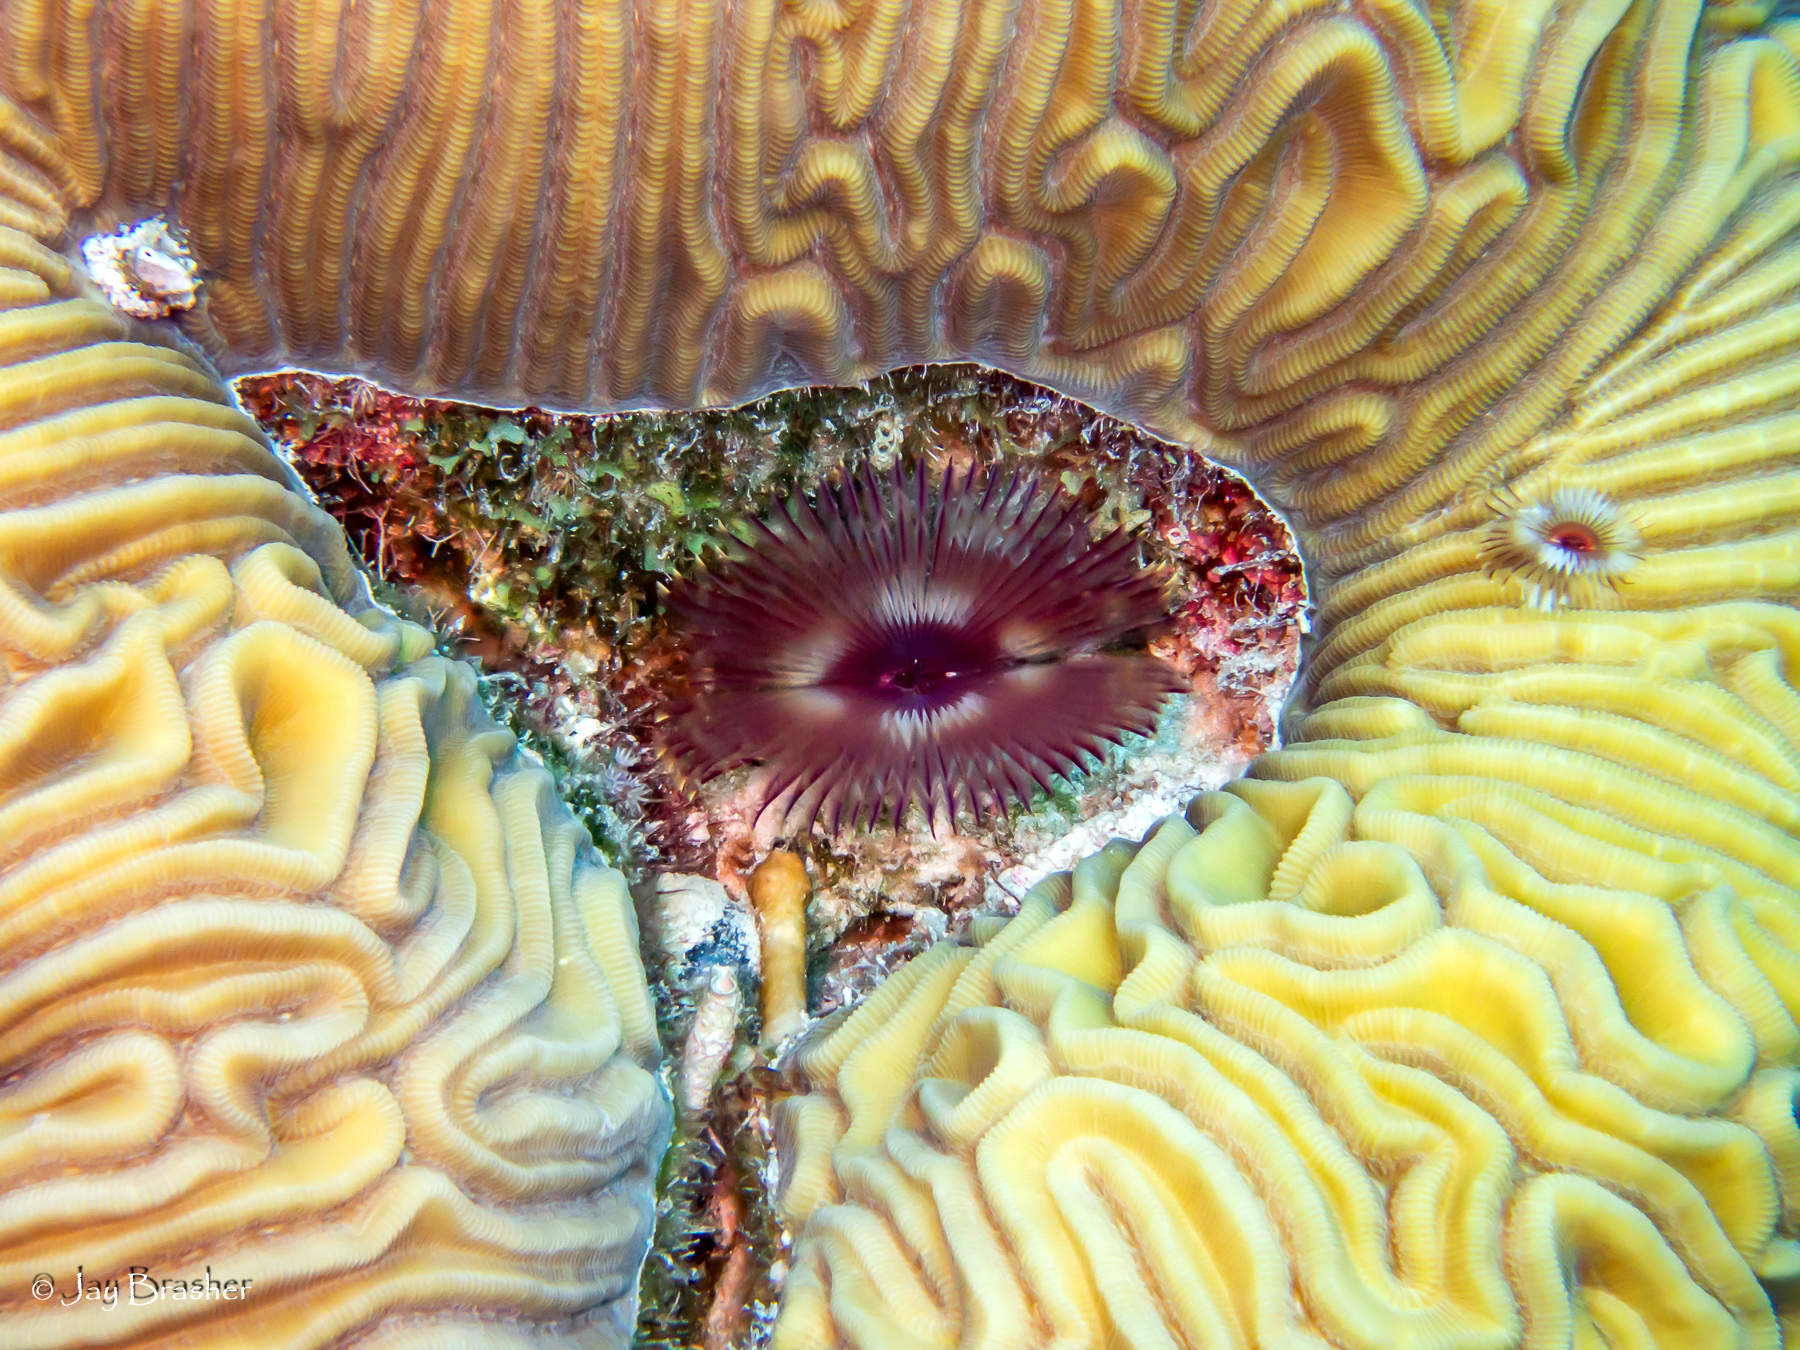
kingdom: Animalia
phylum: Cnidaria
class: Anthozoa
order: Scleractinia
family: Faviidae
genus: Diploria
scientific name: Diploria labyrinthiformis
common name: Grooved brain coral
